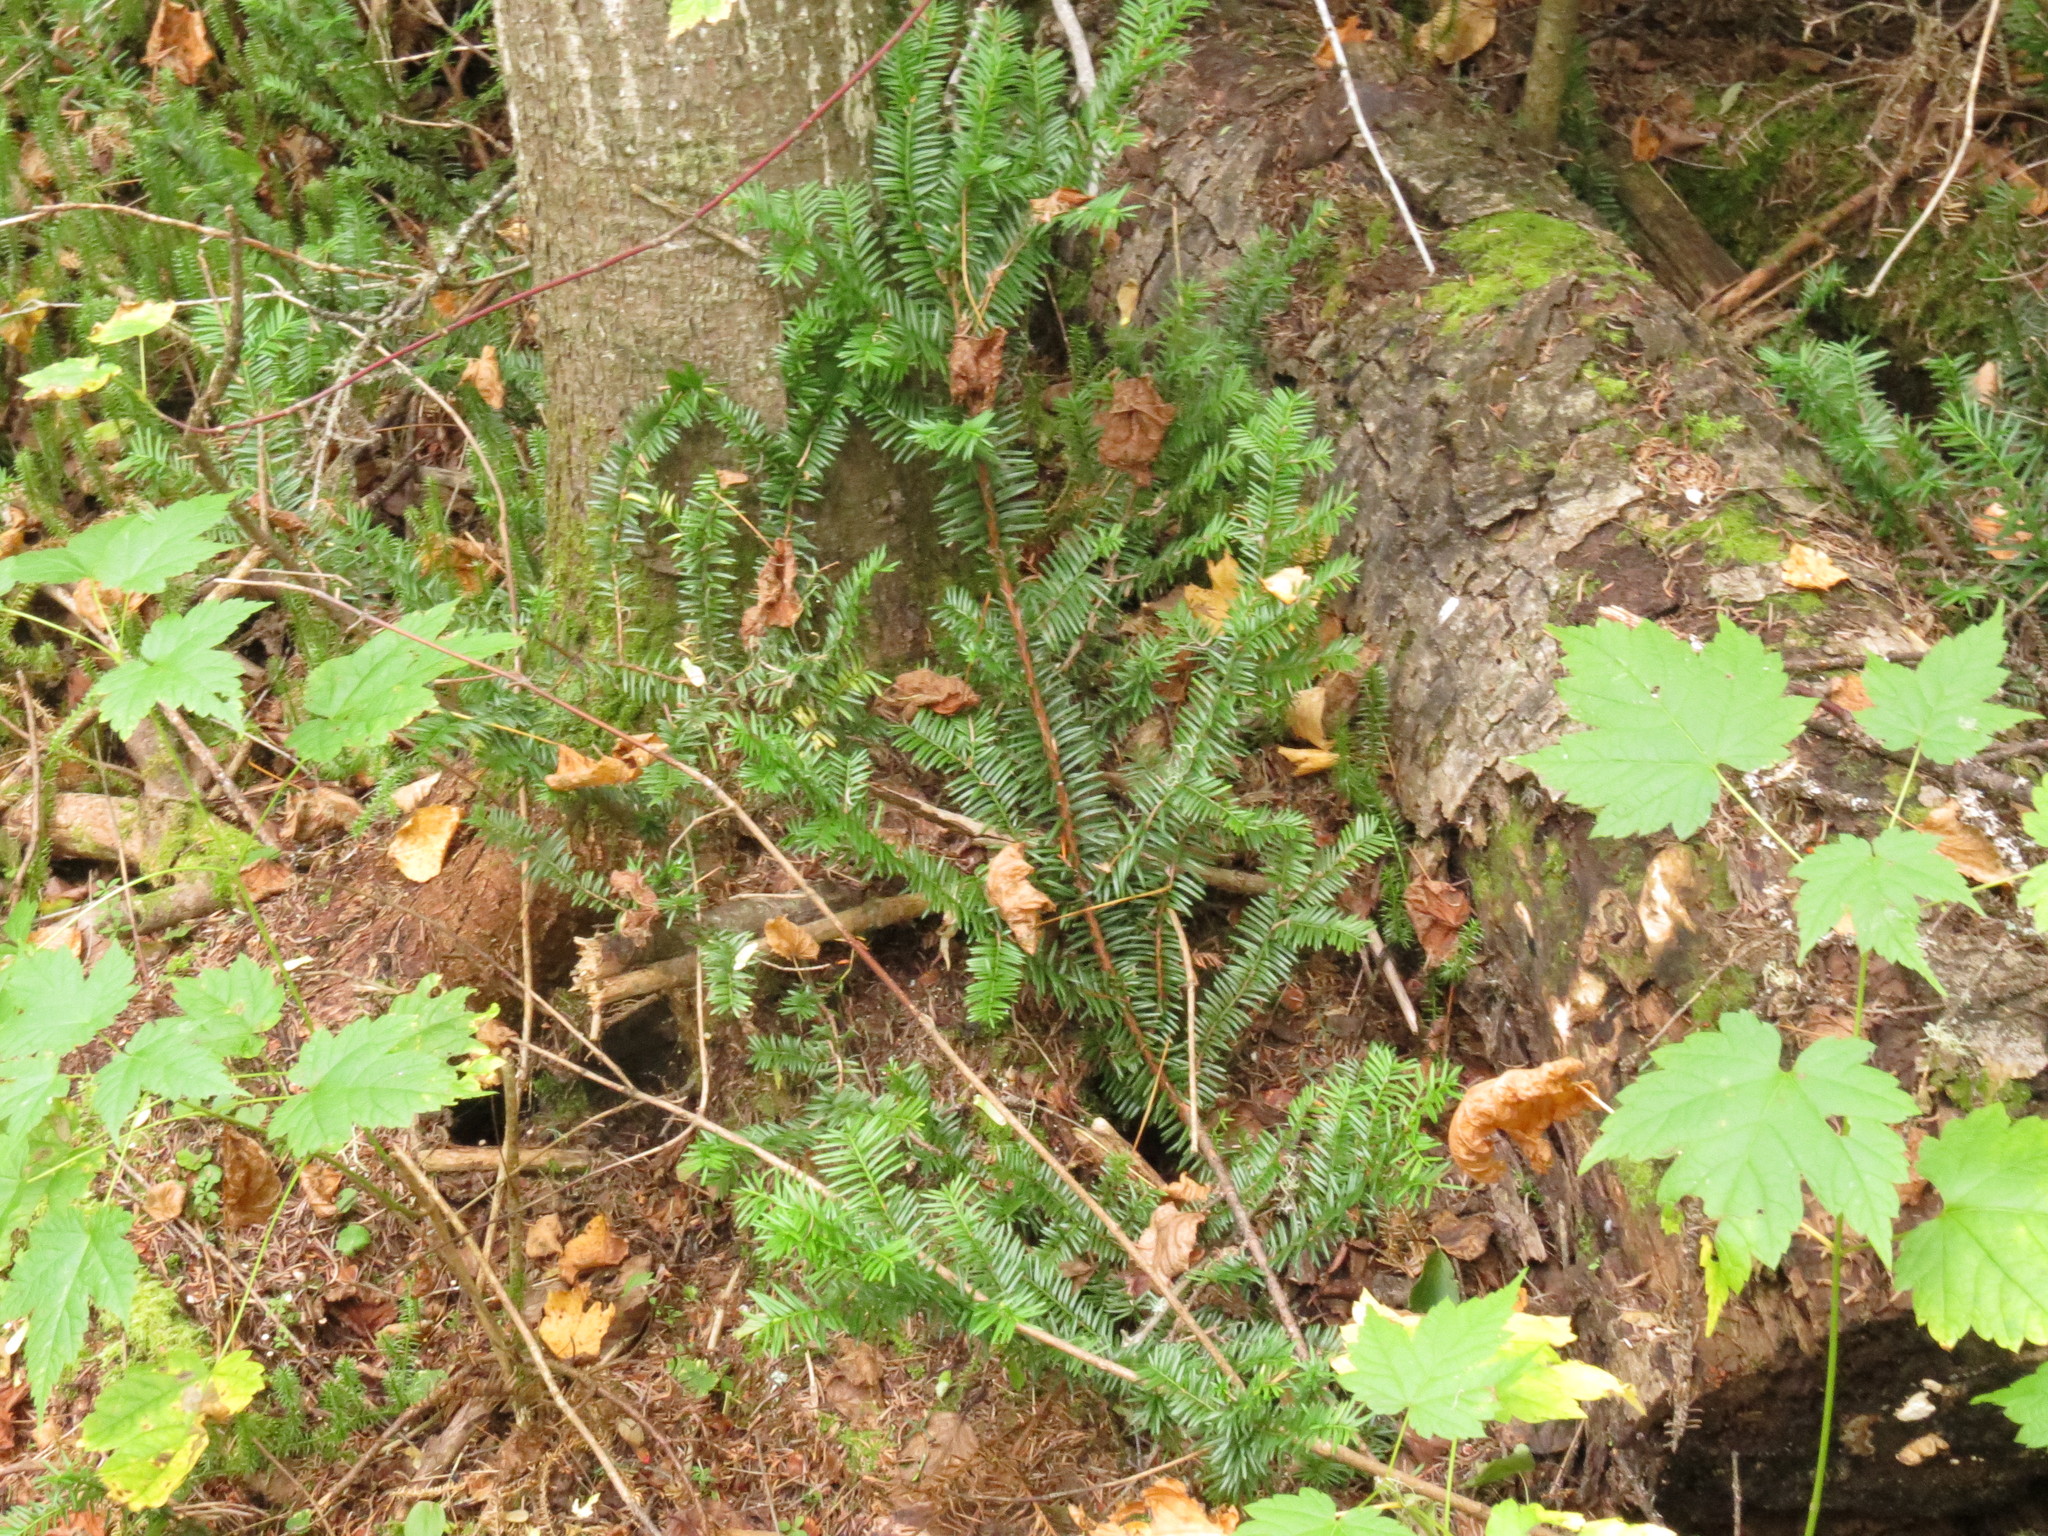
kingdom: Plantae
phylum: Tracheophyta
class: Pinopsida
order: Pinales
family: Taxaceae
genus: Taxus
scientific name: Taxus canadensis
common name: American yew
